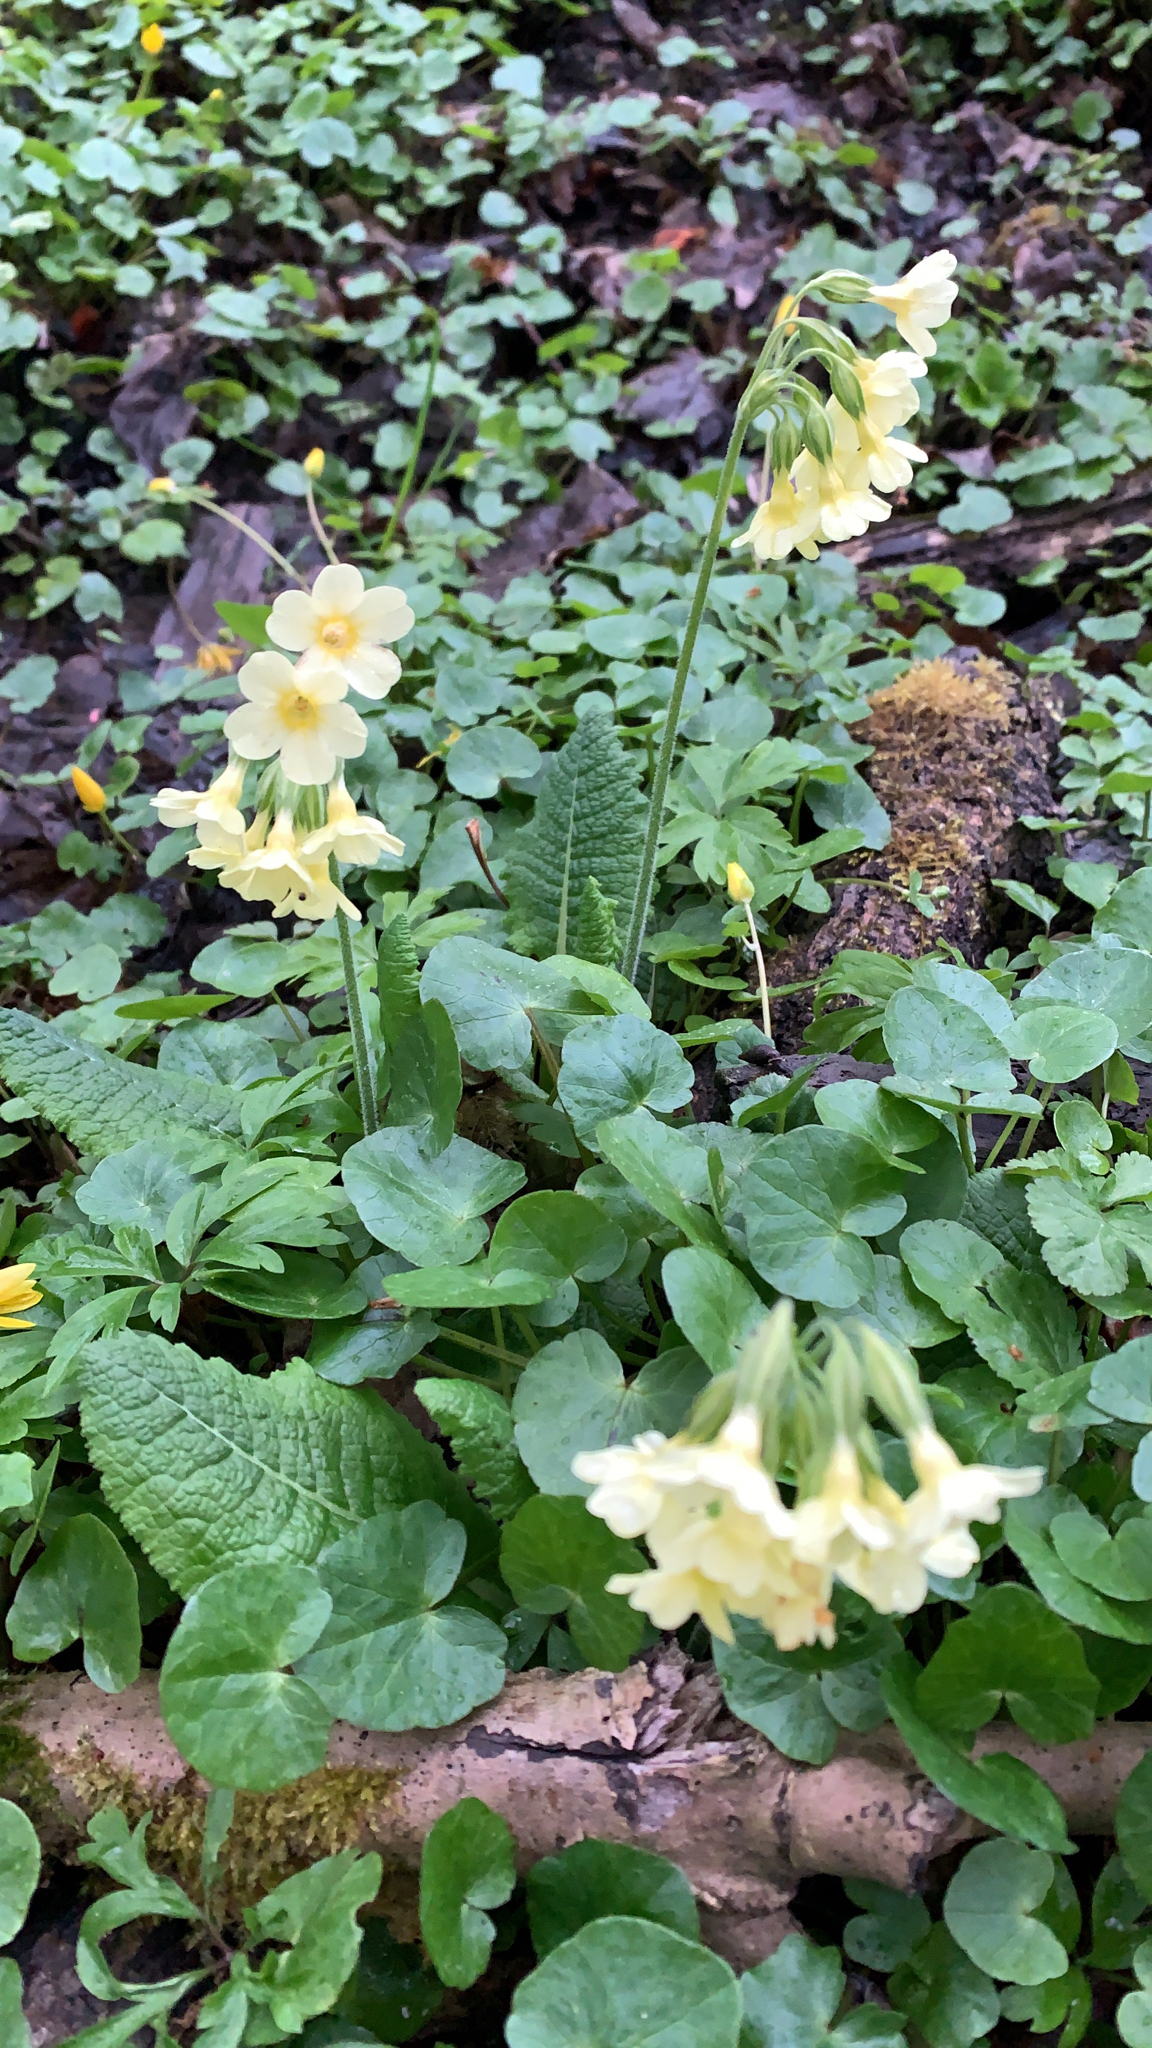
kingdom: Plantae
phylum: Tracheophyta
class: Magnoliopsida
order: Ericales
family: Primulaceae
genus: Primula
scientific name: Primula elatior
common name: Oxlip
